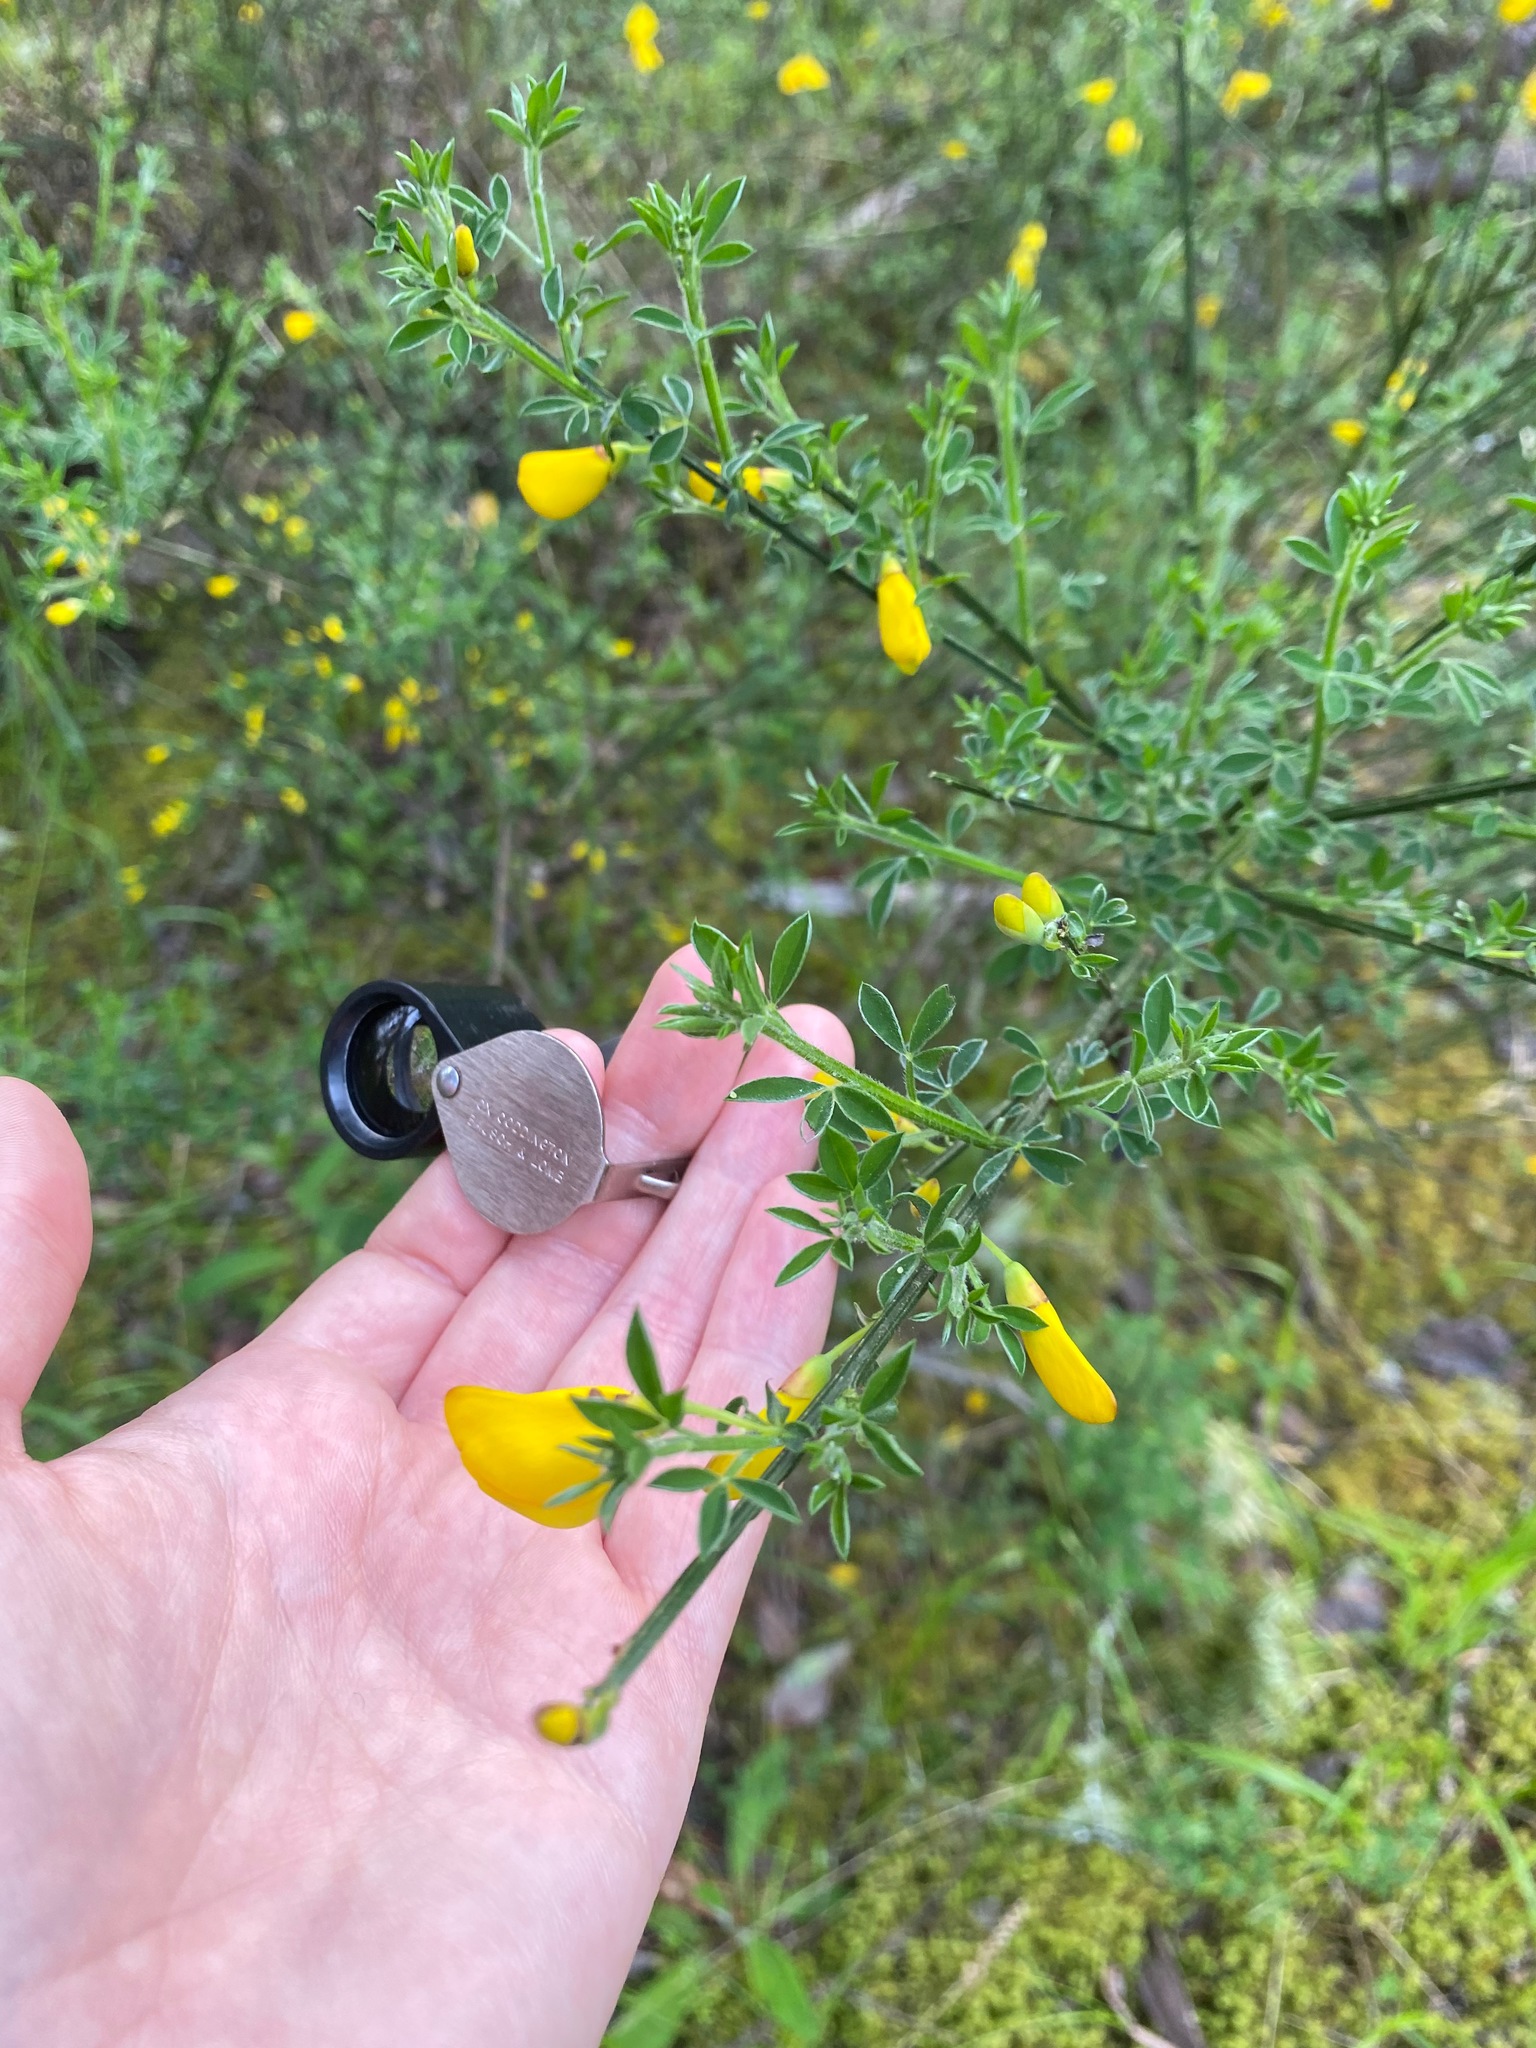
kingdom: Plantae
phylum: Tracheophyta
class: Magnoliopsida
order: Fabales
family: Fabaceae
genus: Cytisus
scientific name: Cytisus scoparius
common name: Scotch broom
